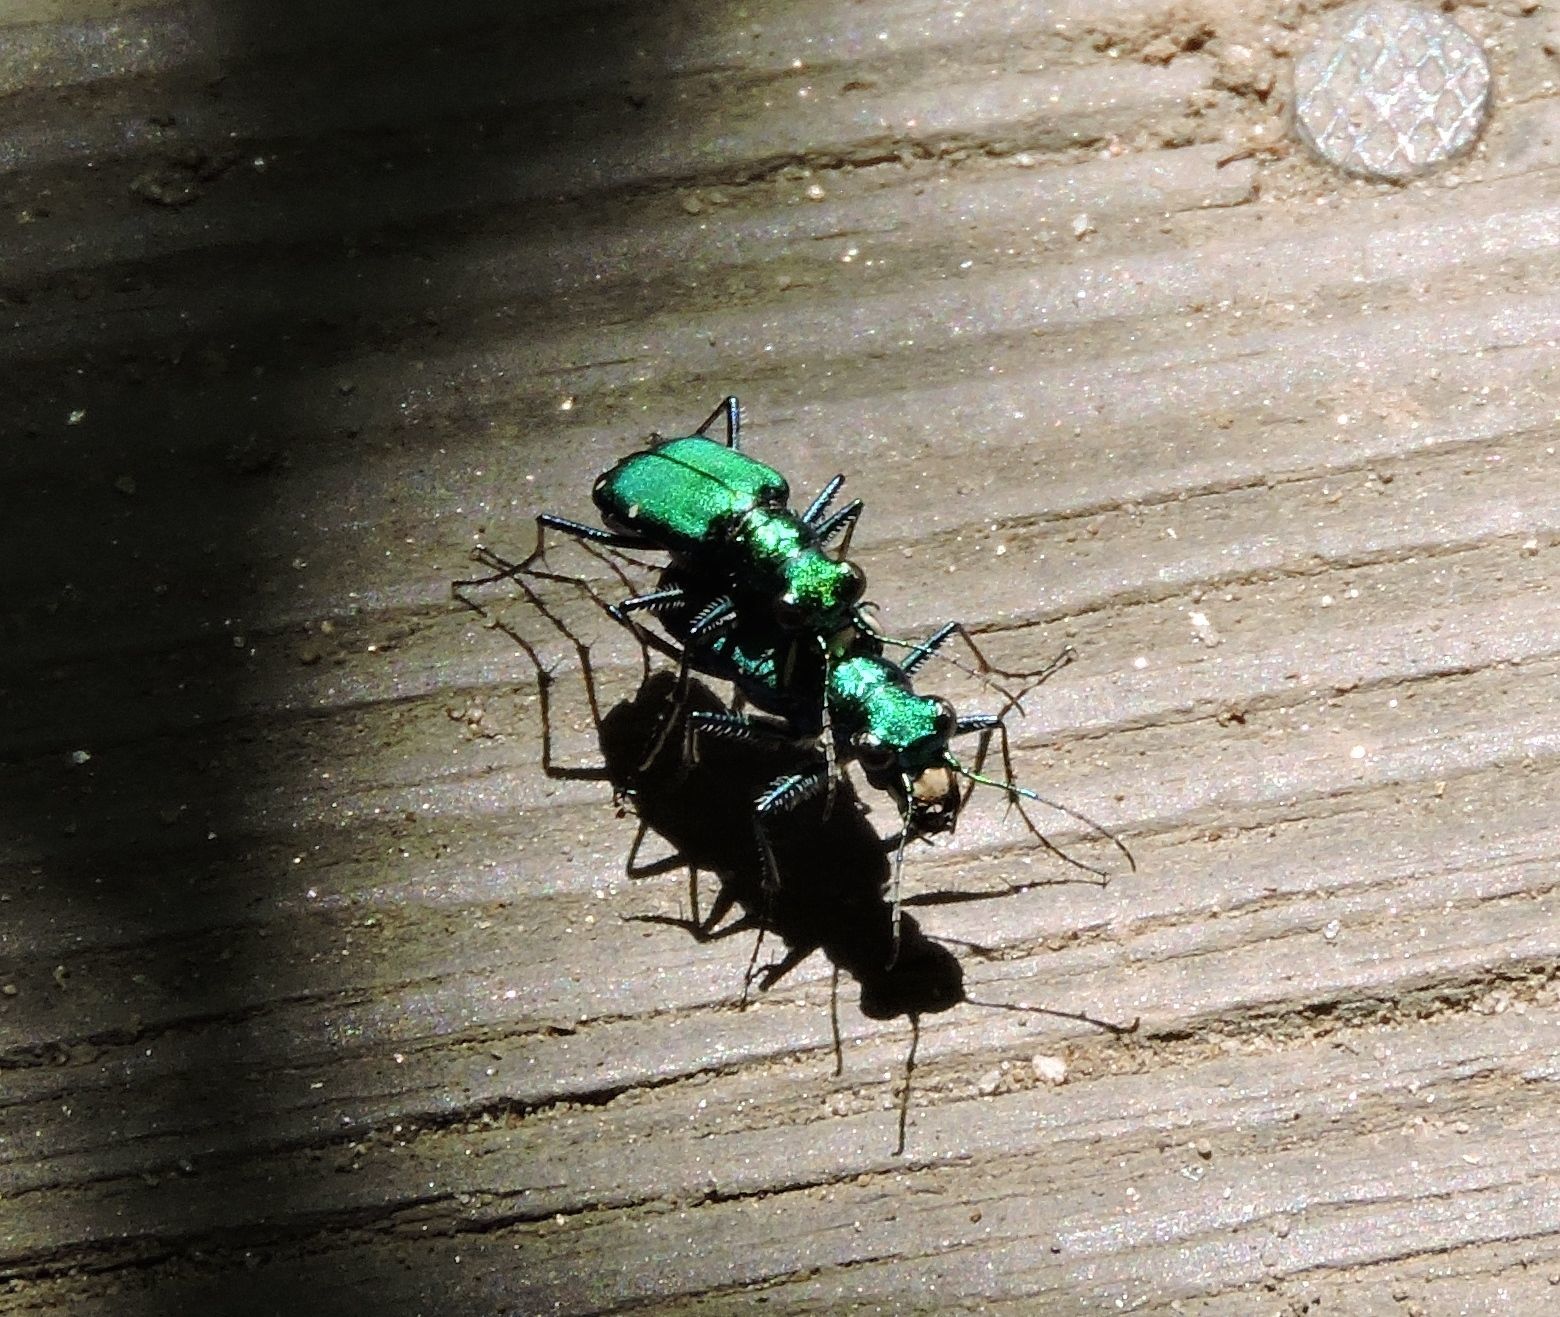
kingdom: Animalia
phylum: Arthropoda
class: Insecta
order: Coleoptera
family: Carabidae
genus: Cicindela
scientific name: Cicindela sexguttata
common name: Six-spotted tiger beetle
